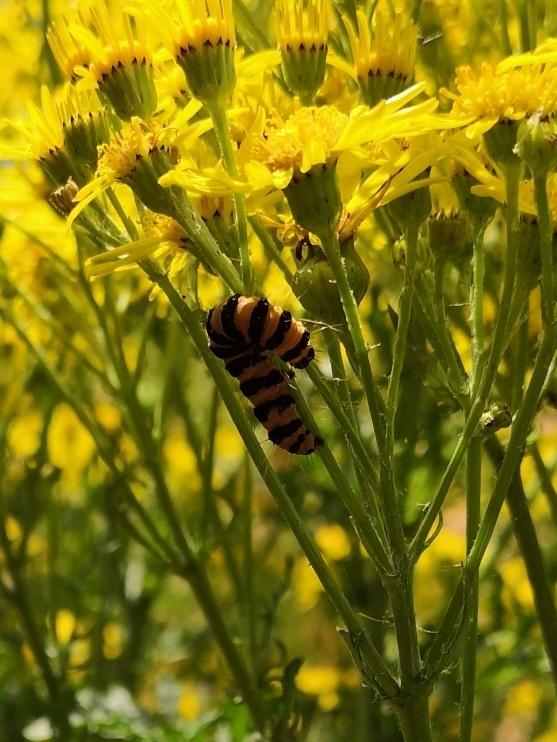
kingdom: Animalia
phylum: Arthropoda
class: Insecta
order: Lepidoptera
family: Erebidae
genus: Tyria
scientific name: Tyria jacobaeae
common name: Cinnabar
